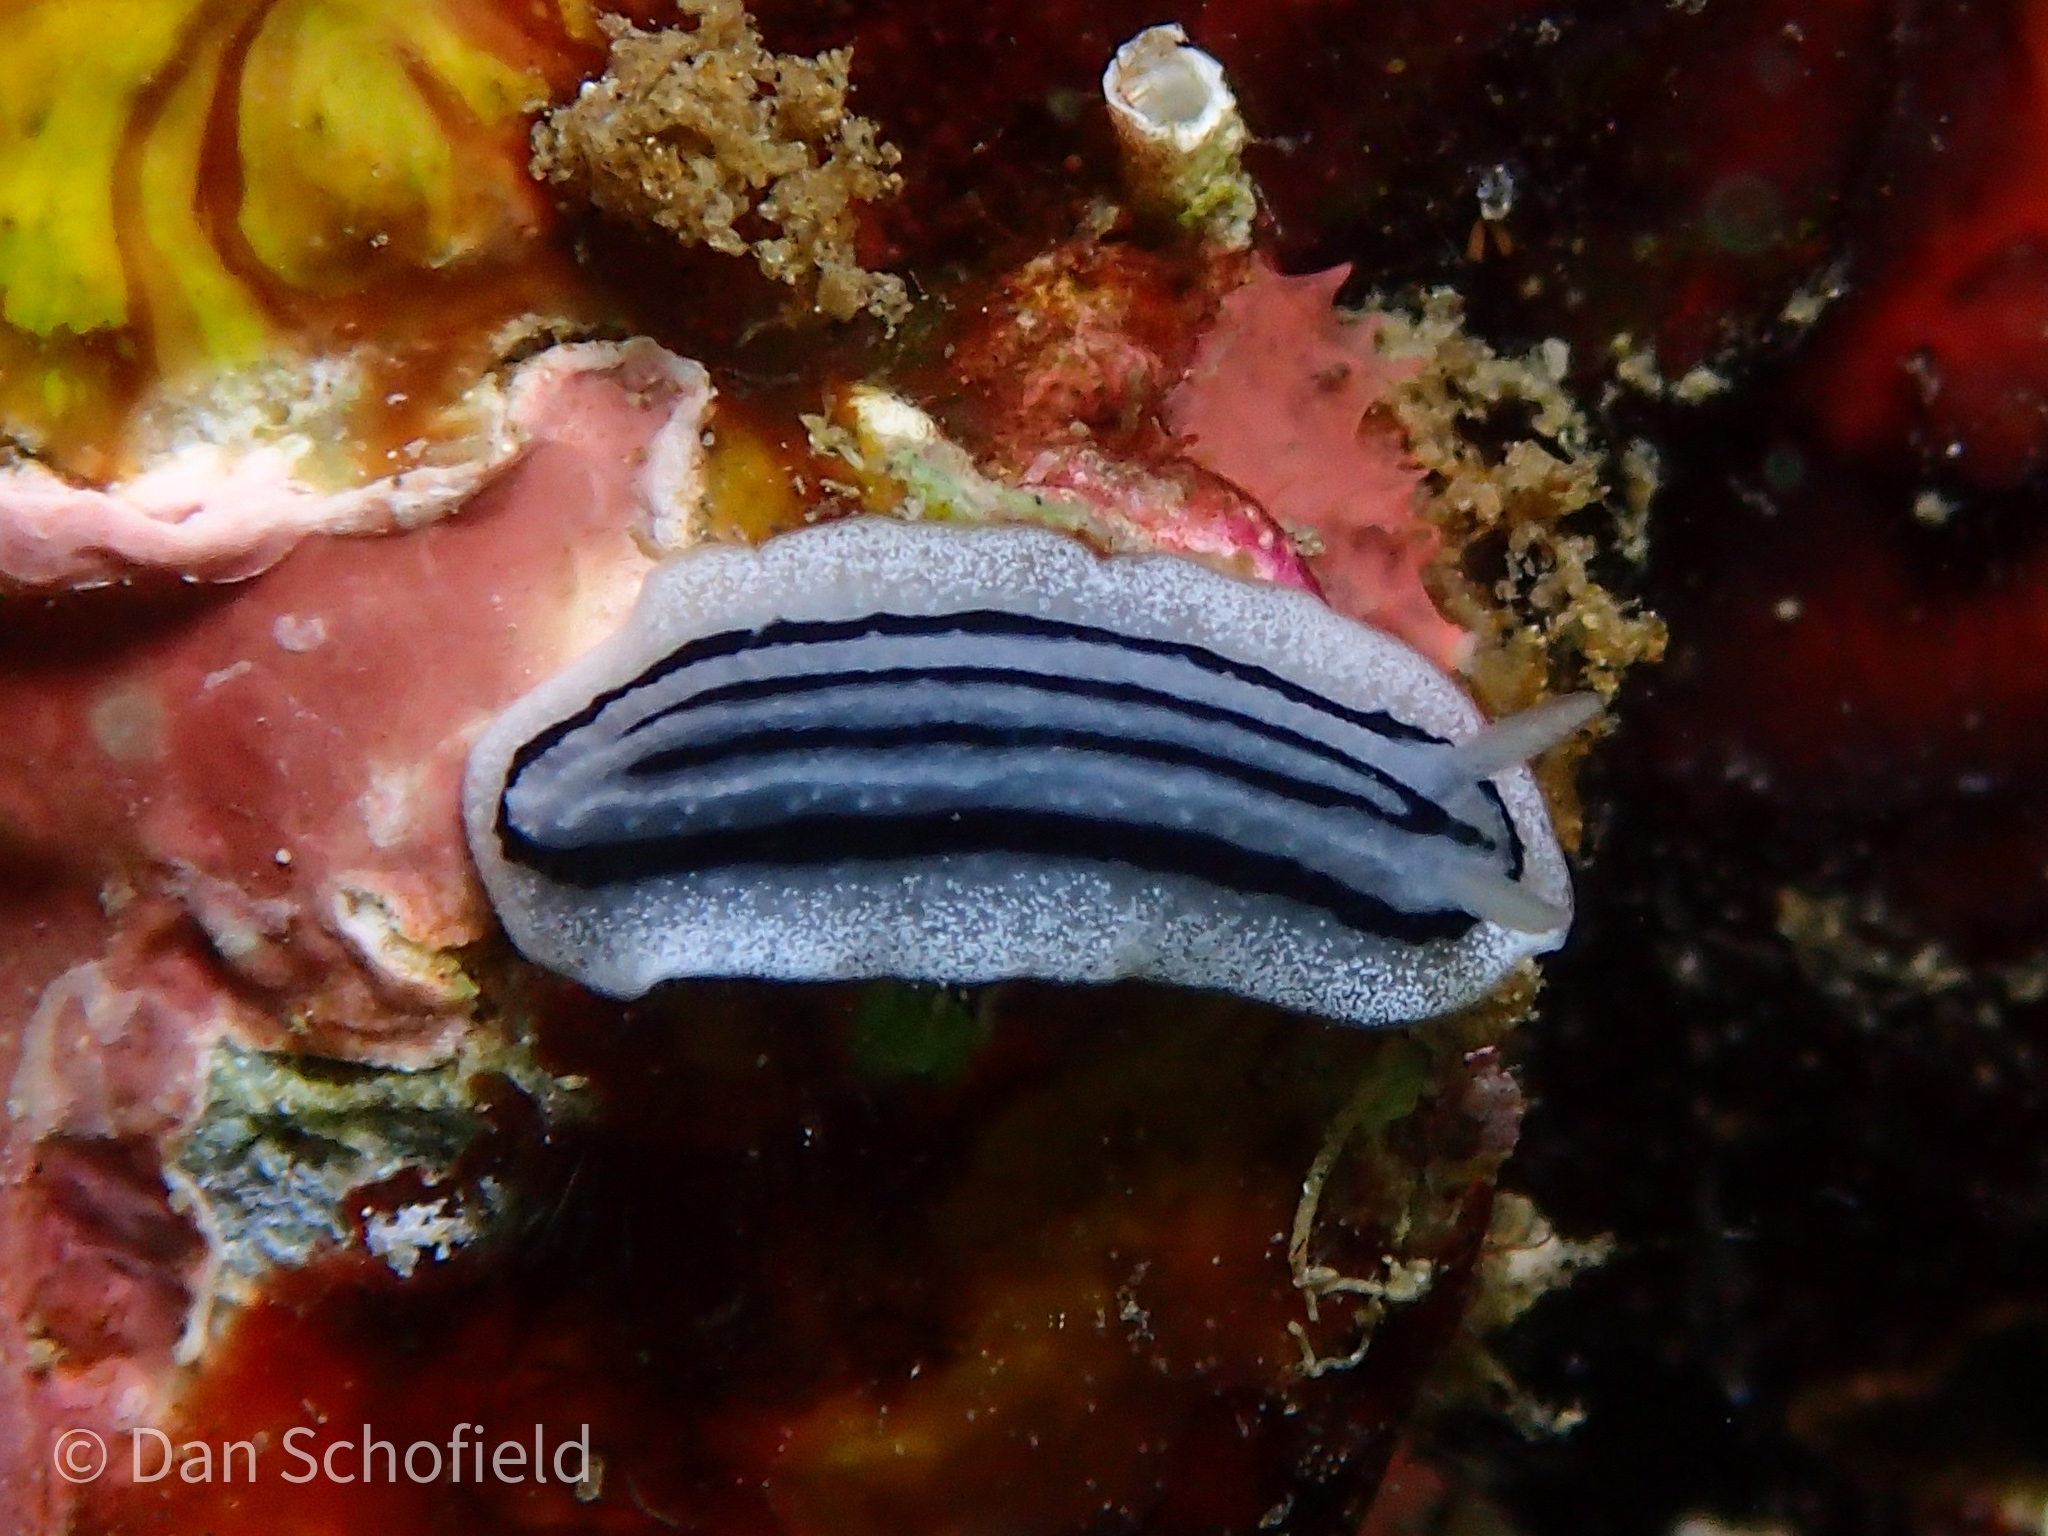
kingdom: Animalia
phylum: Mollusca
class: Gastropoda
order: Nudibranchia
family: Phyllidiidae
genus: Phyllidiopsis
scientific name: Phyllidiopsis xishaensis
